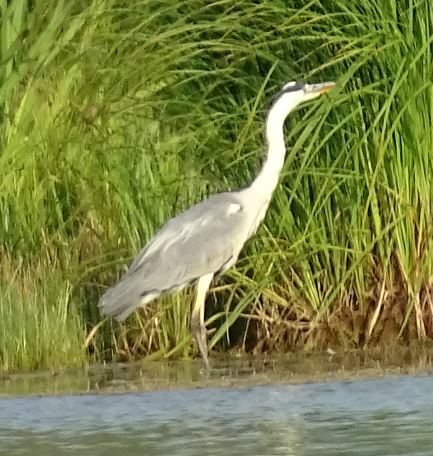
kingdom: Animalia
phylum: Chordata
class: Aves
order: Pelecaniformes
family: Ardeidae
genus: Ardea
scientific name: Ardea cinerea
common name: Grey heron
